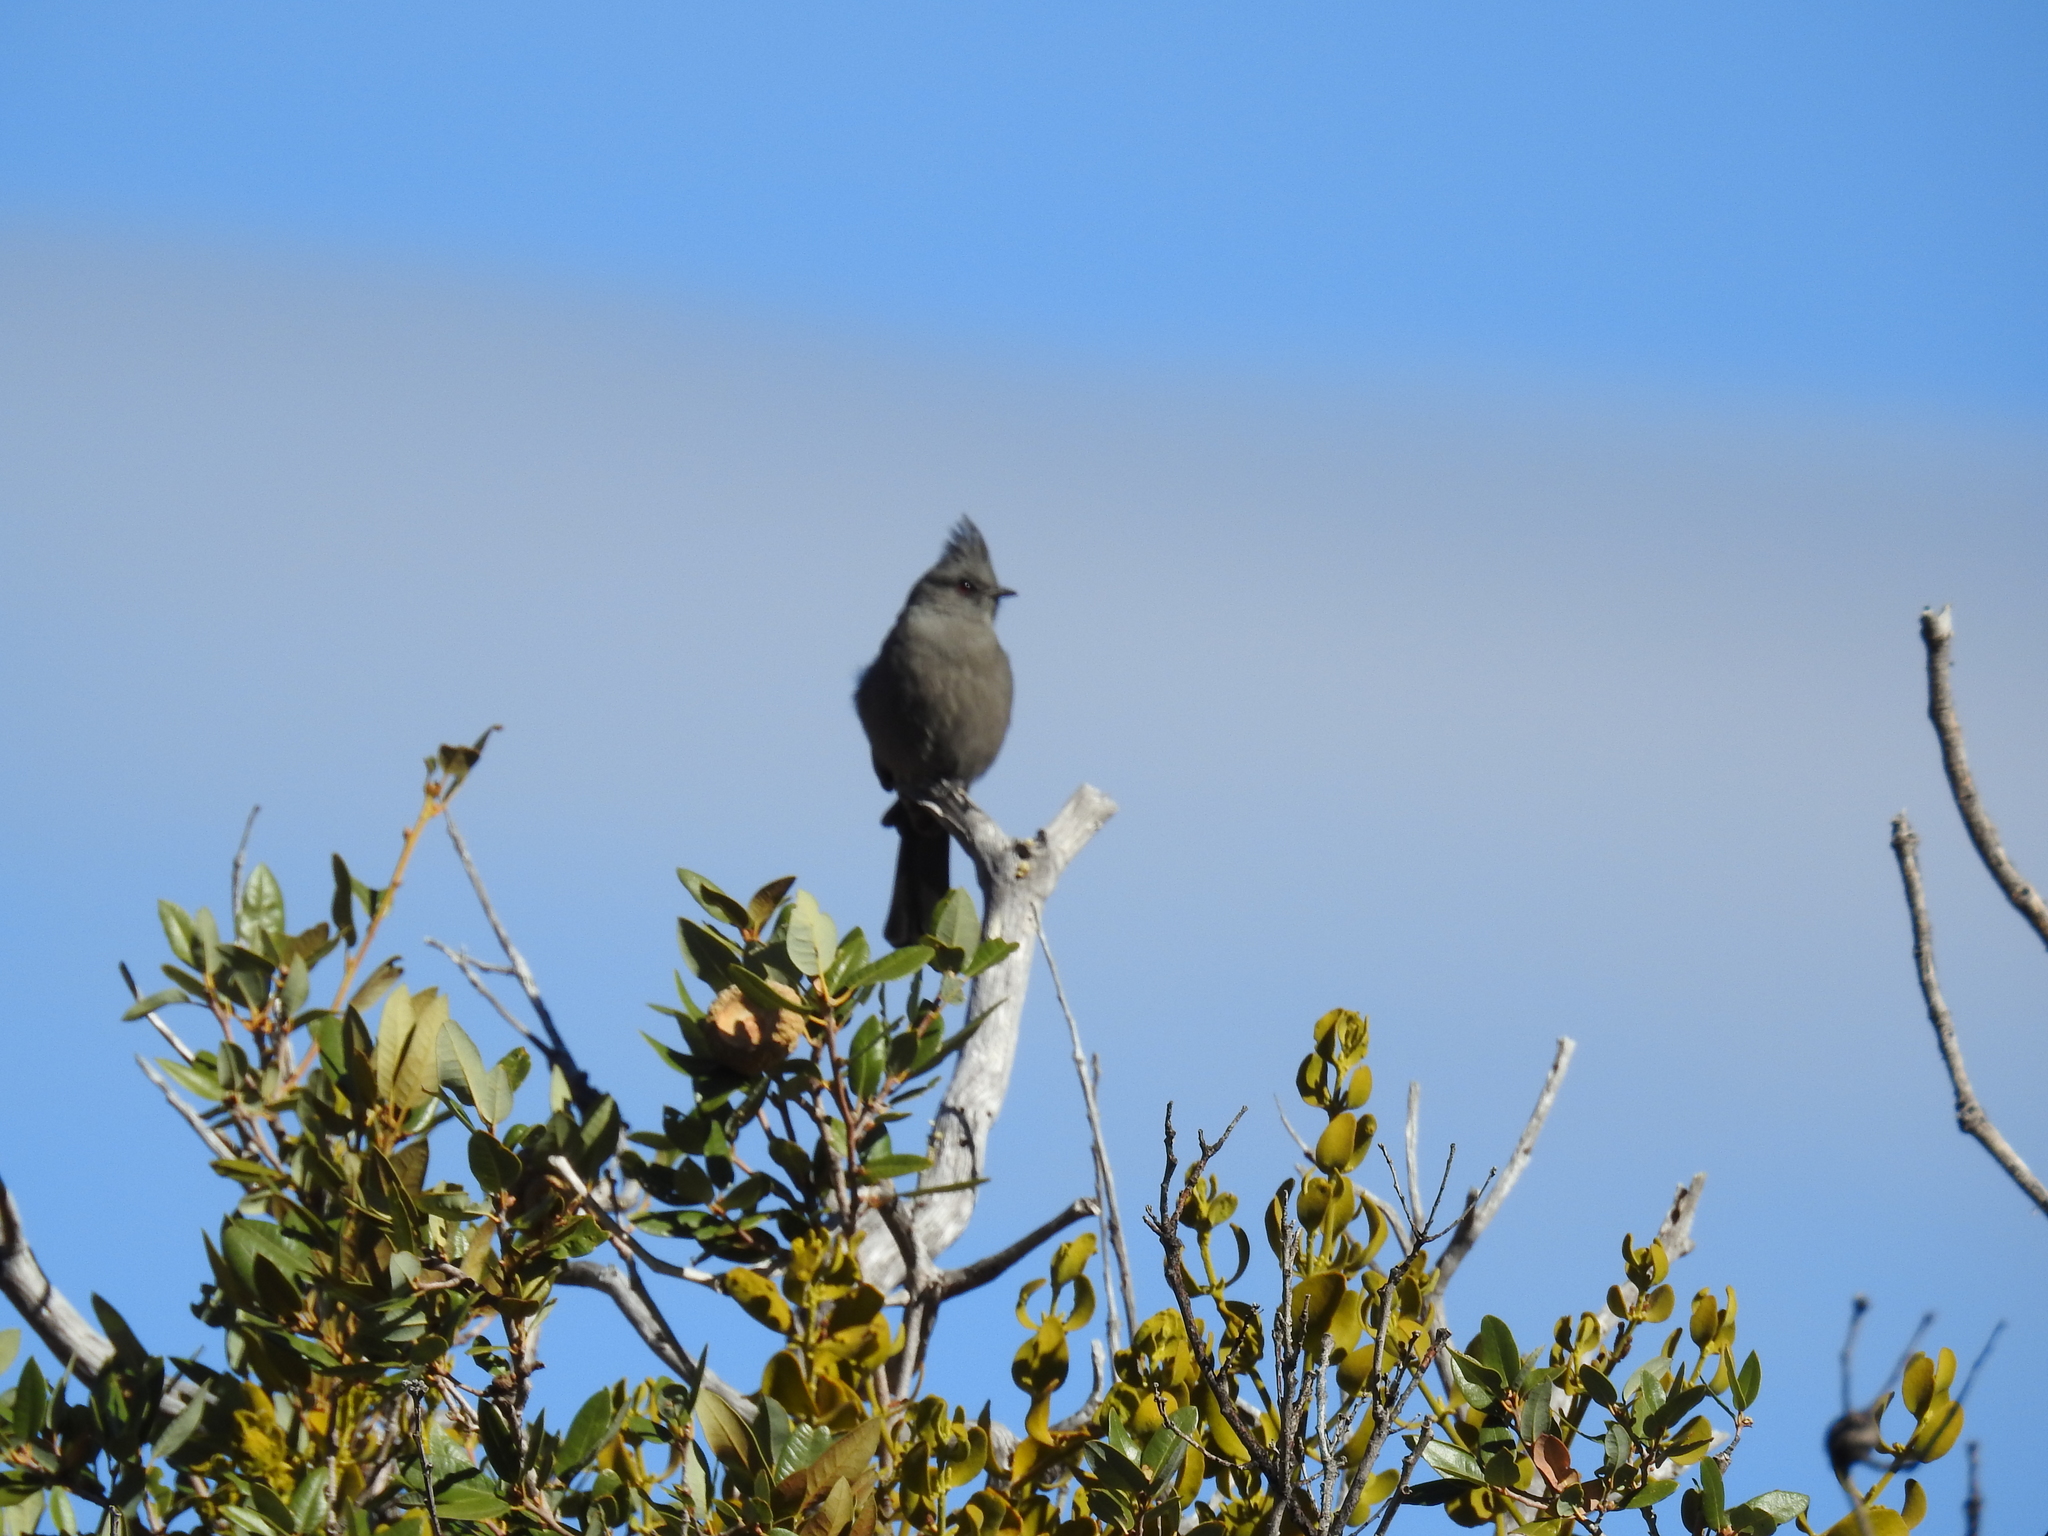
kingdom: Animalia
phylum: Chordata
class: Aves
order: Passeriformes
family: Ptilogonatidae
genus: Phainopepla
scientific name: Phainopepla nitens
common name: Phainopepla
